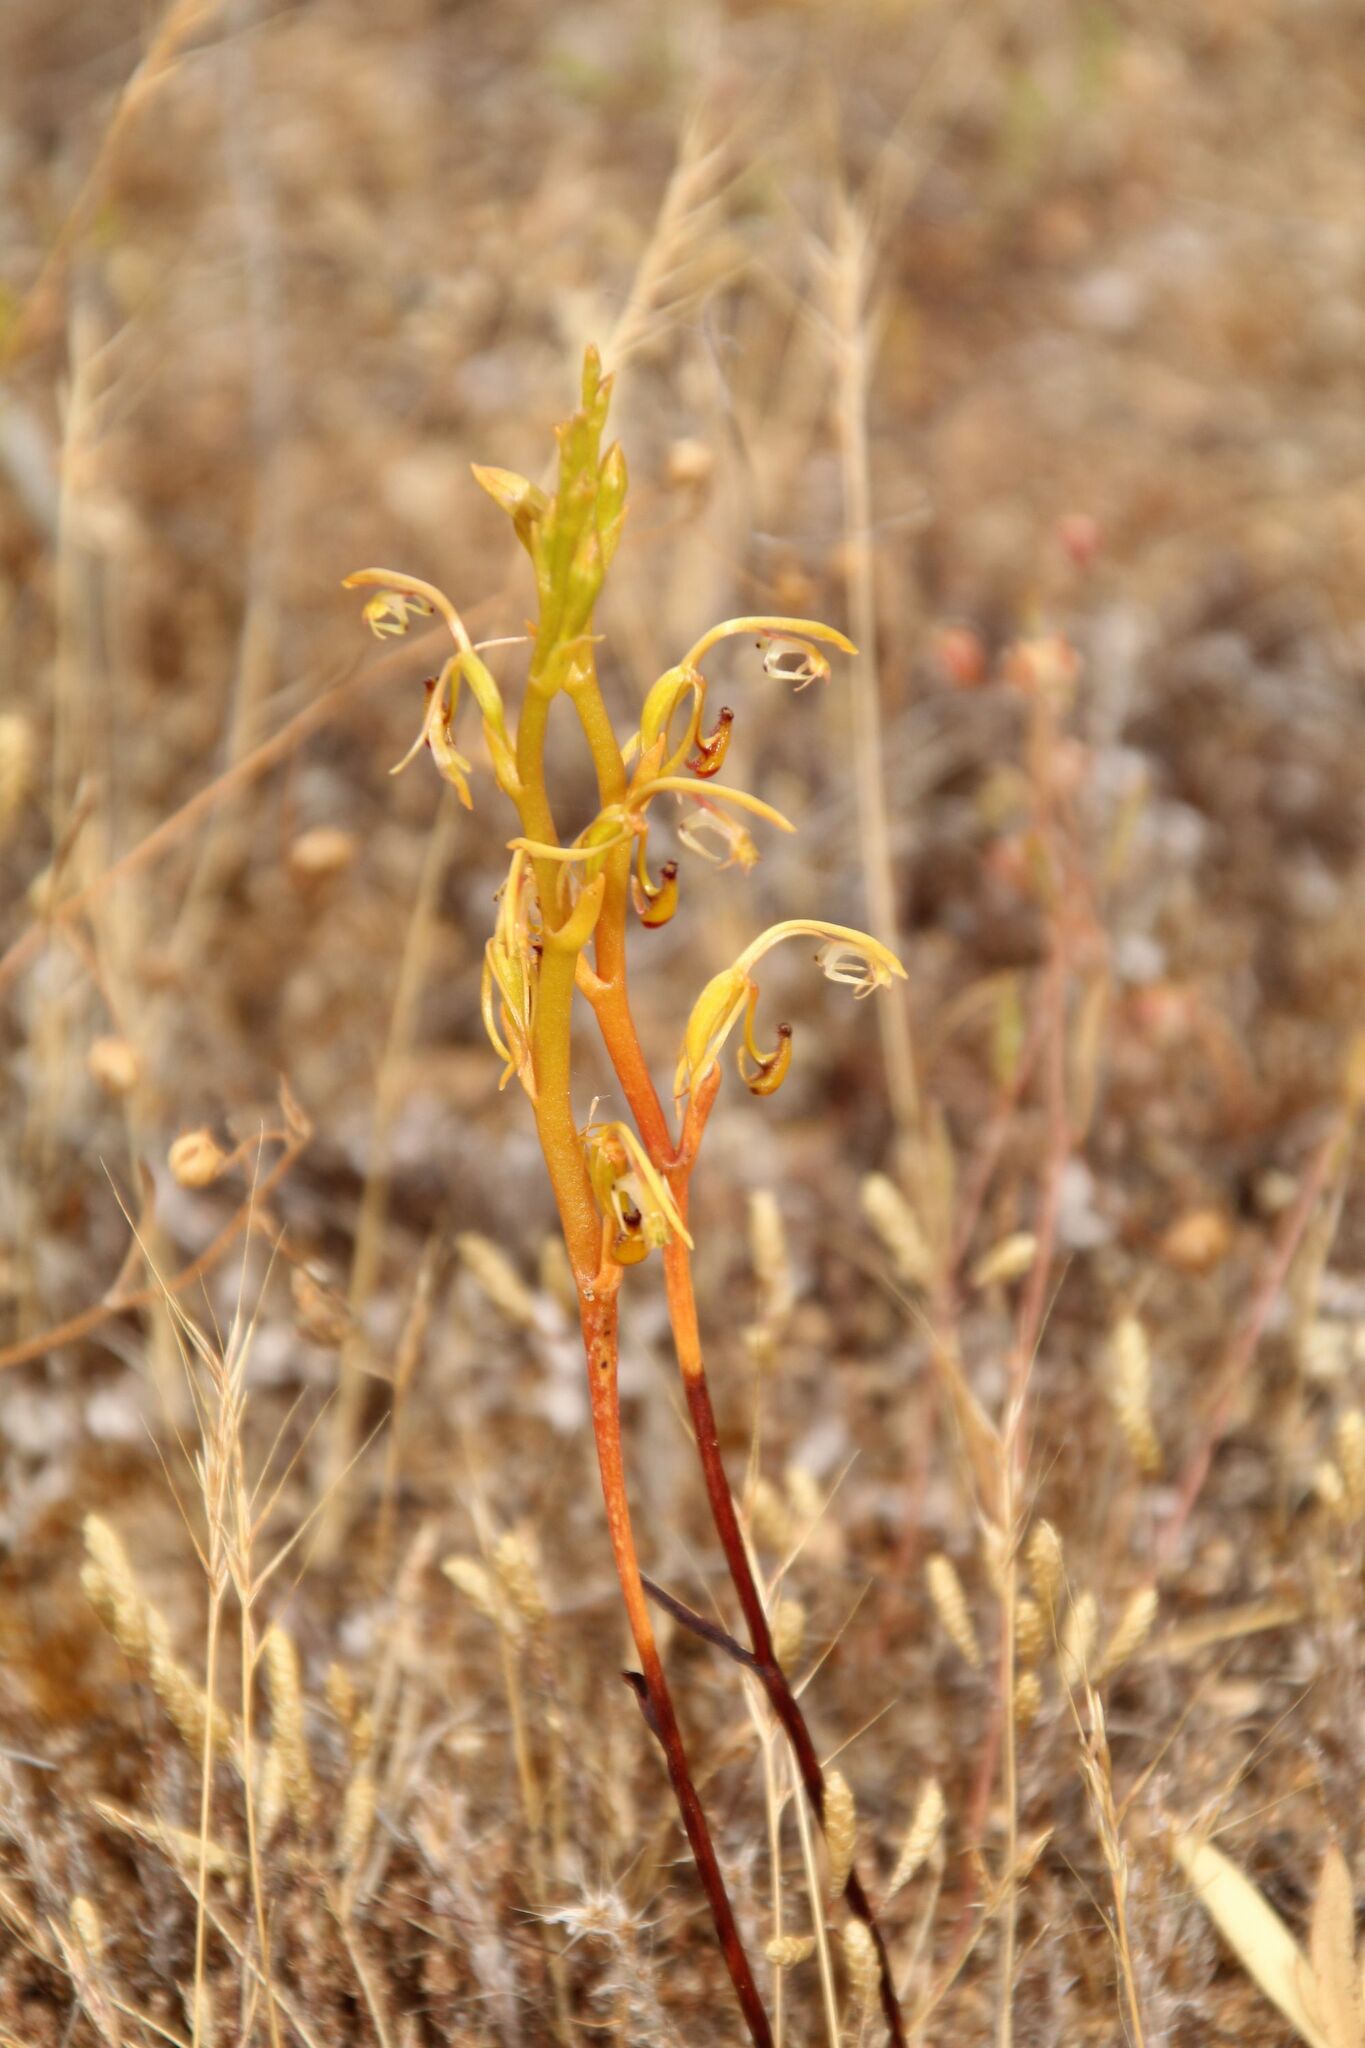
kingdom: Plantae
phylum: Tracheophyta
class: Liliopsida
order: Asparagales
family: Orchidaceae
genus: Spiculaea
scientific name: Spiculaea ciliata
